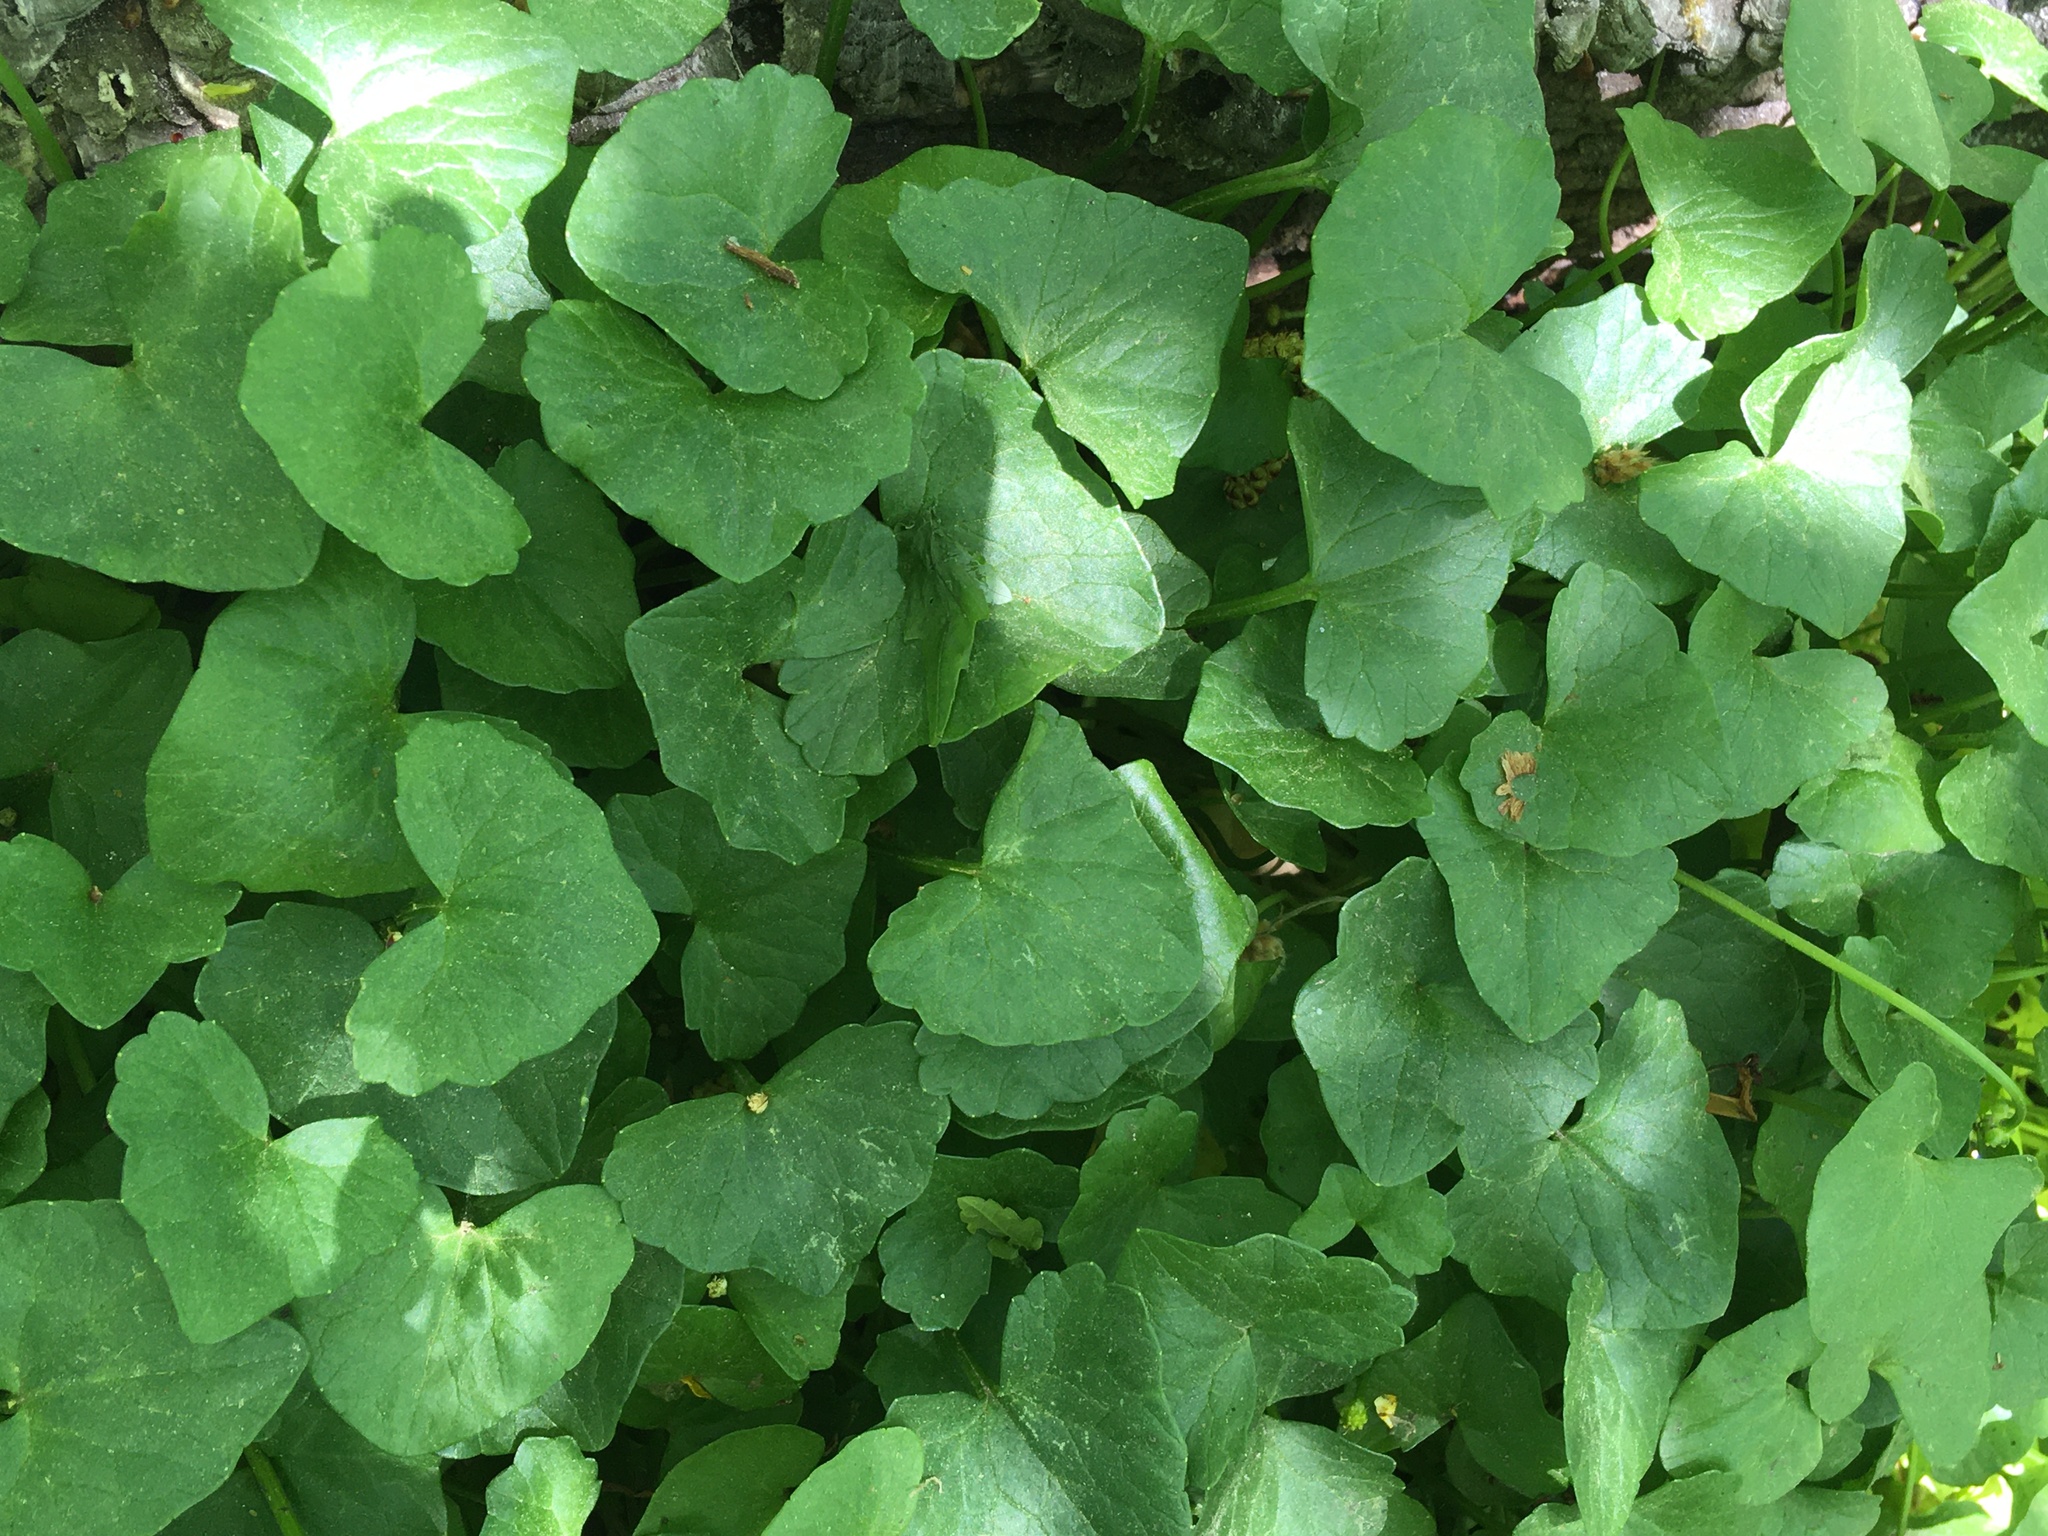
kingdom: Plantae
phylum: Tracheophyta
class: Magnoliopsida
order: Ranunculales
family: Ranunculaceae
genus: Ficaria
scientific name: Ficaria verna
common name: Lesser celandine
